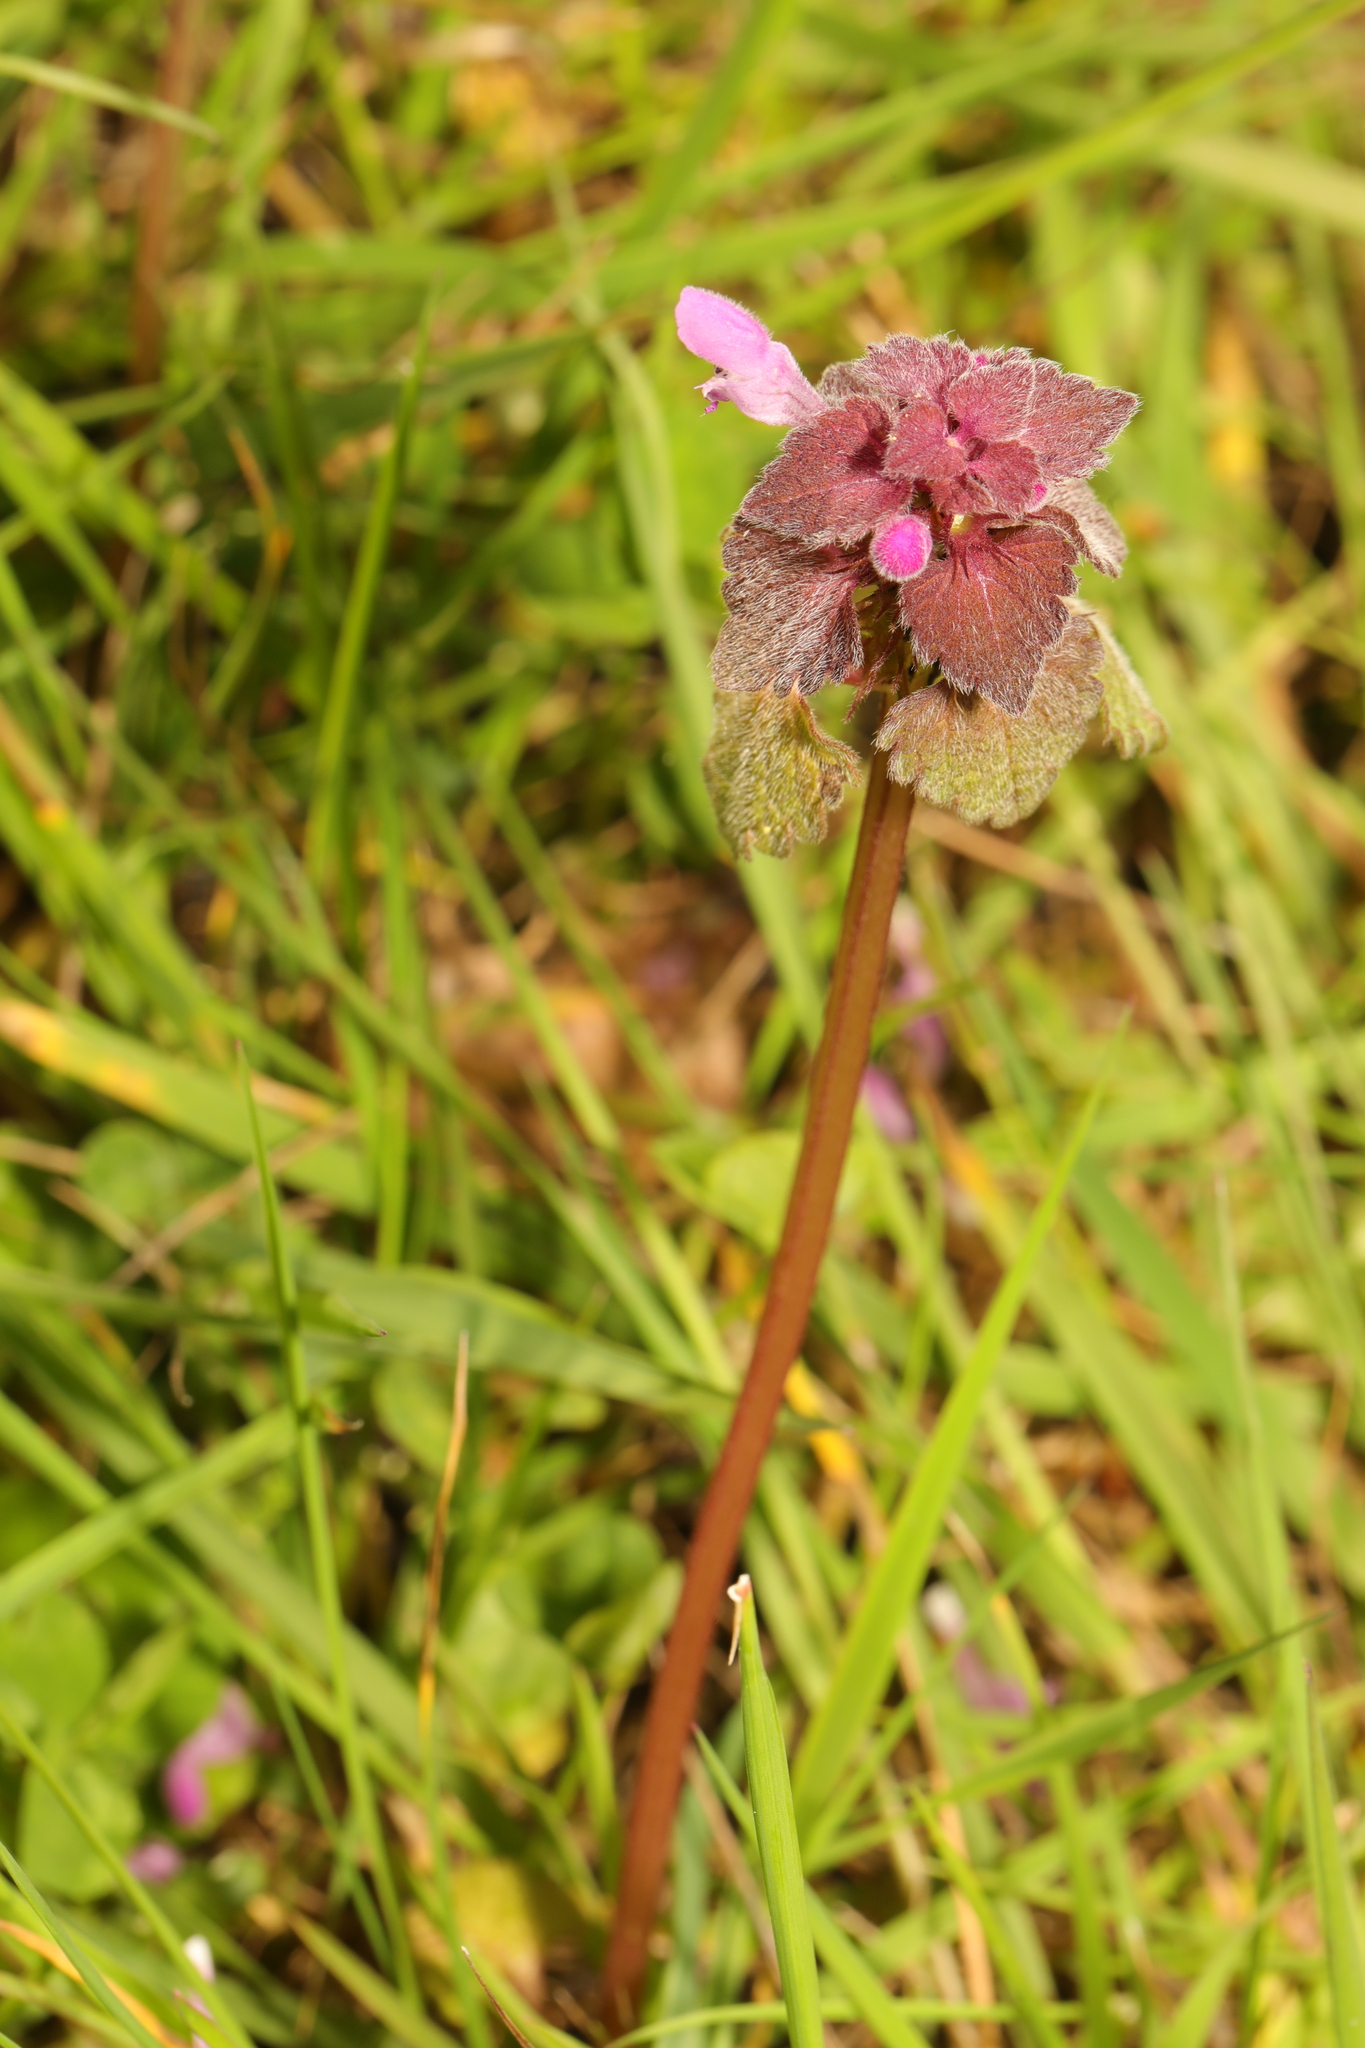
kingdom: Plantae
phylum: Tracheophyta
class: Magnoliopsida
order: Lamiales
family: Lamiaceae
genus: Lamium
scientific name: Lamium purpureum
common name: Red dead-nettle
